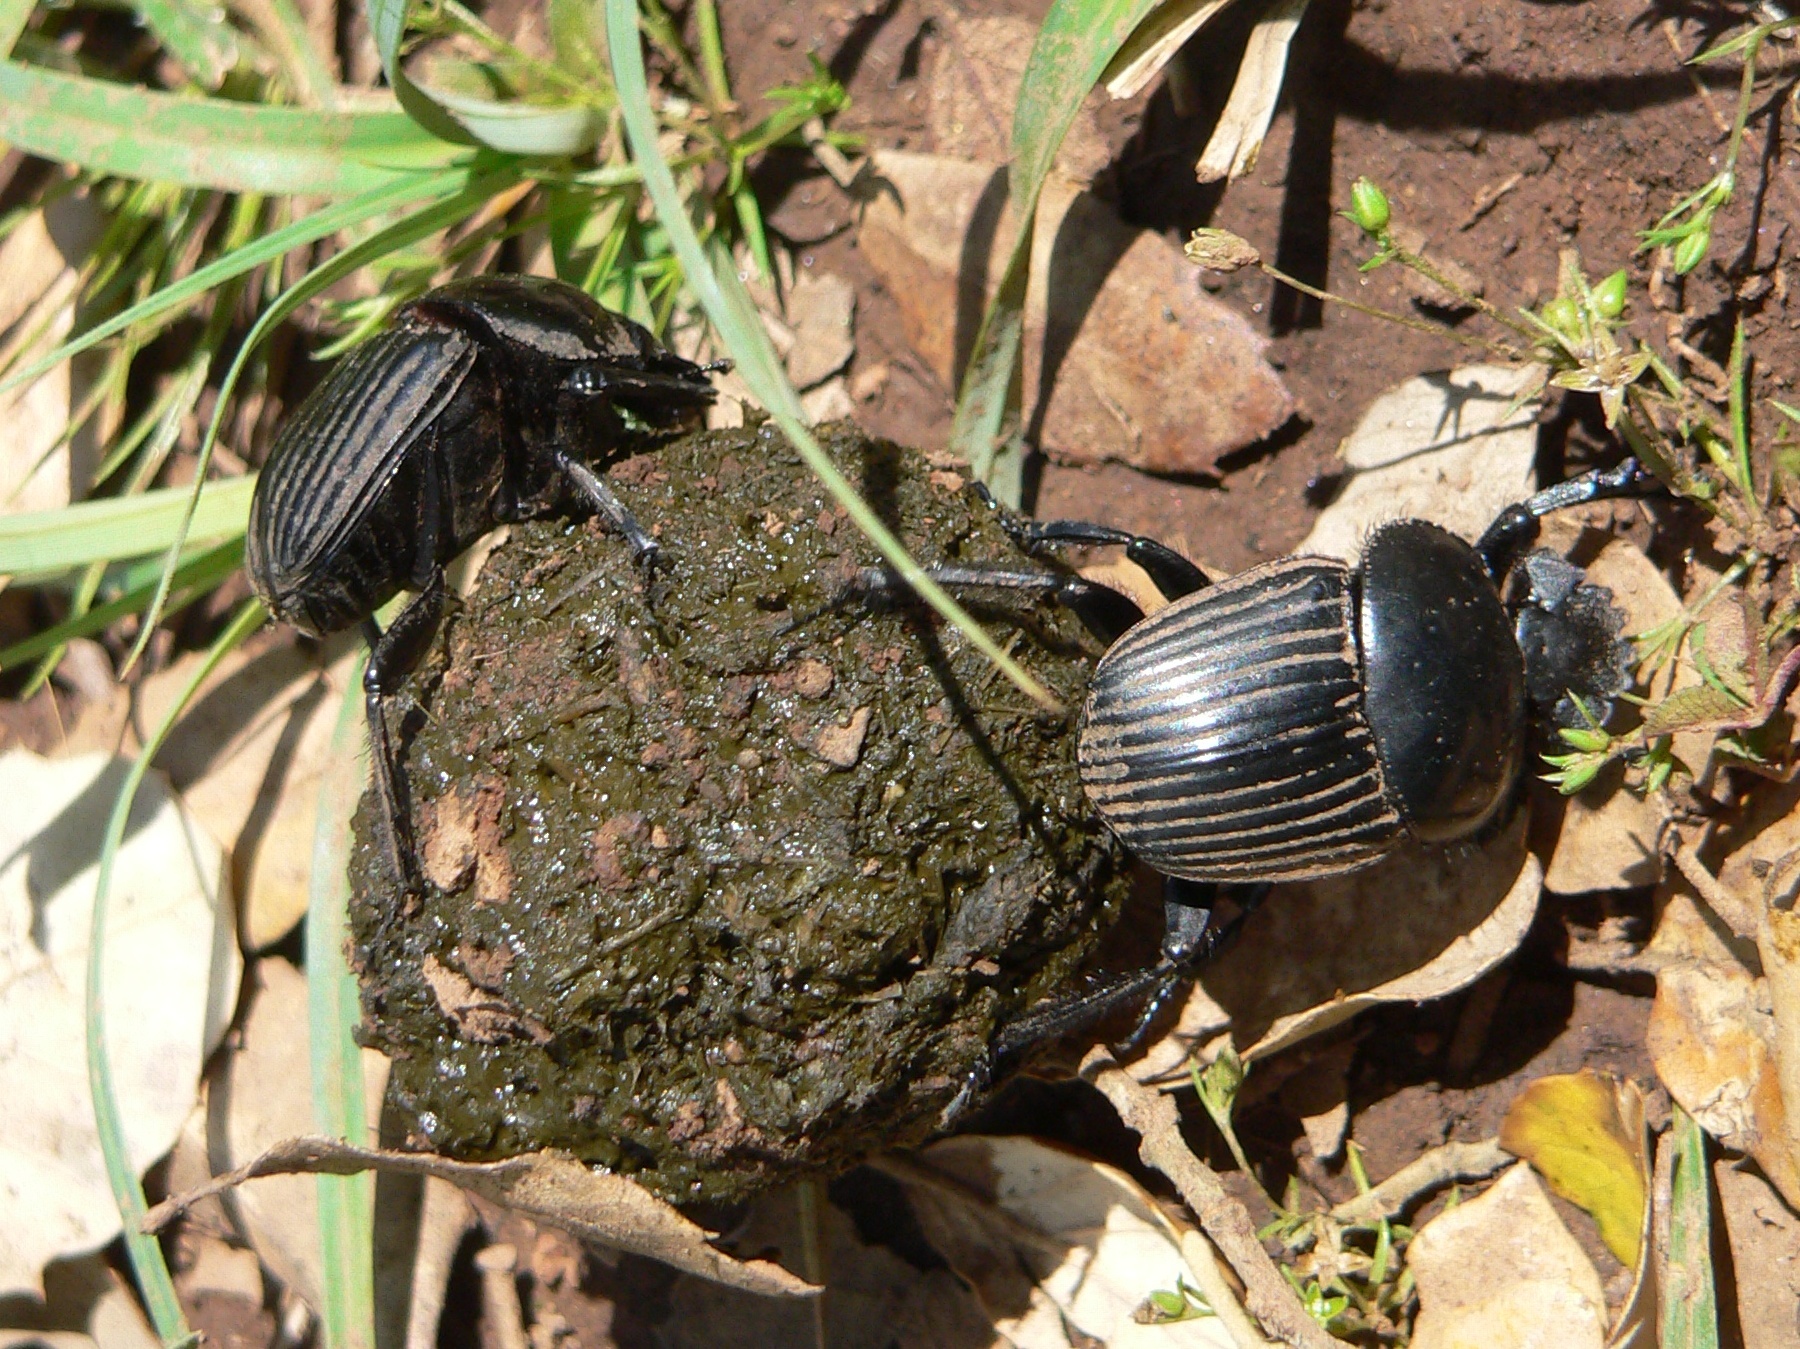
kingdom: Animalia
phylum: Arthropoda
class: Insecta
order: Coleoptera
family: Scarabaeidae
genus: Ateuchetus
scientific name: Ateuchetus laticollis
